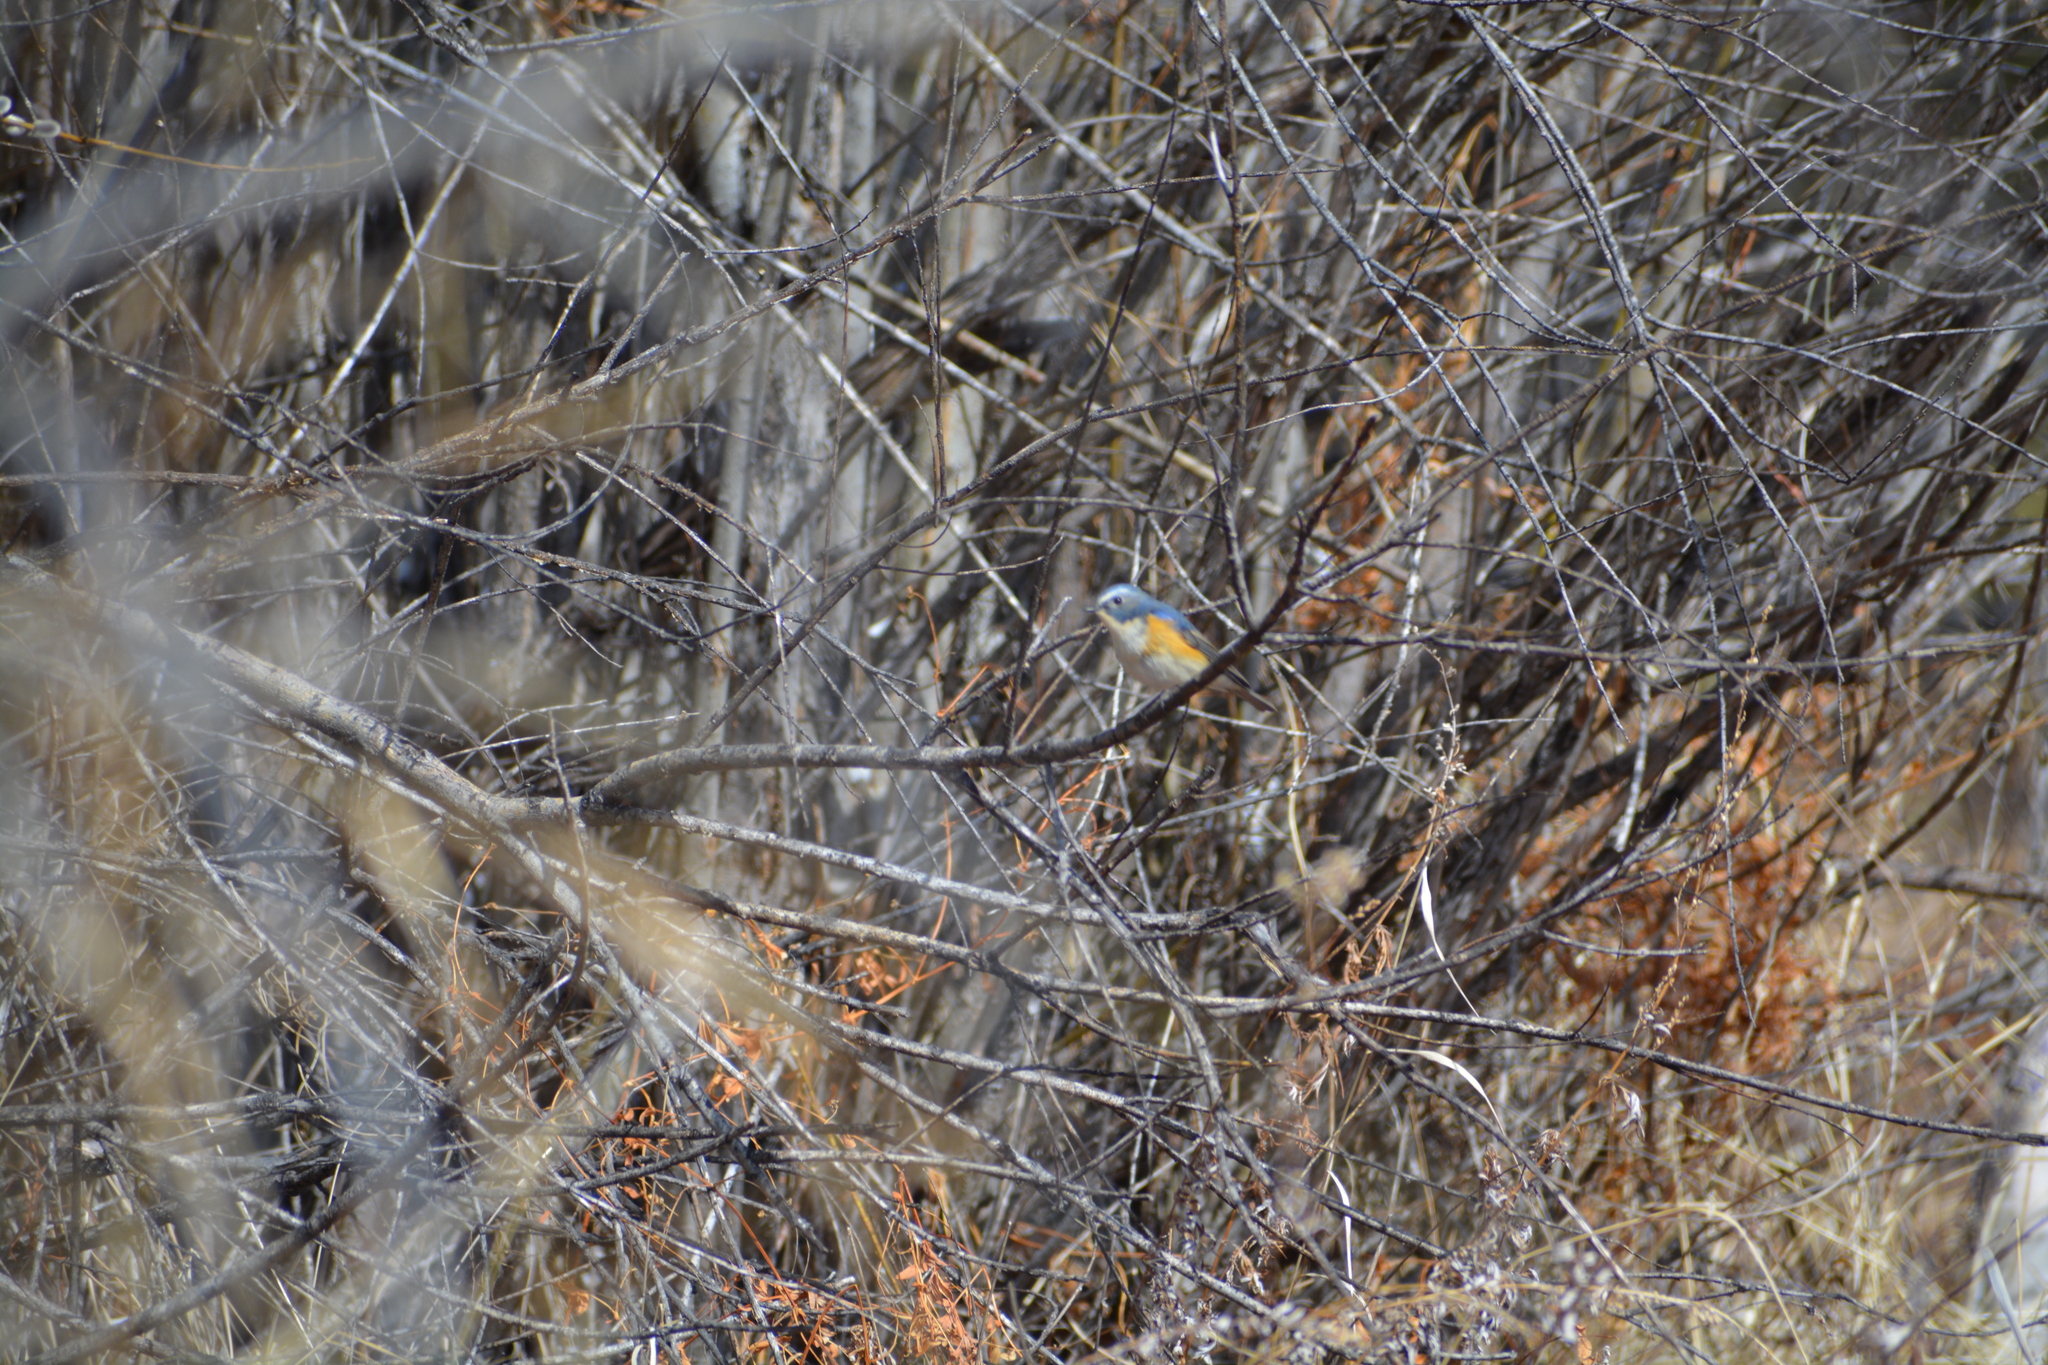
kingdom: Animalia
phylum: Chordata
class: Aves
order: Passeriformes
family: Muscicapidae
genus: Tarsiger
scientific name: Tarsiger cyanurus
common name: Red-flanked bluetail
